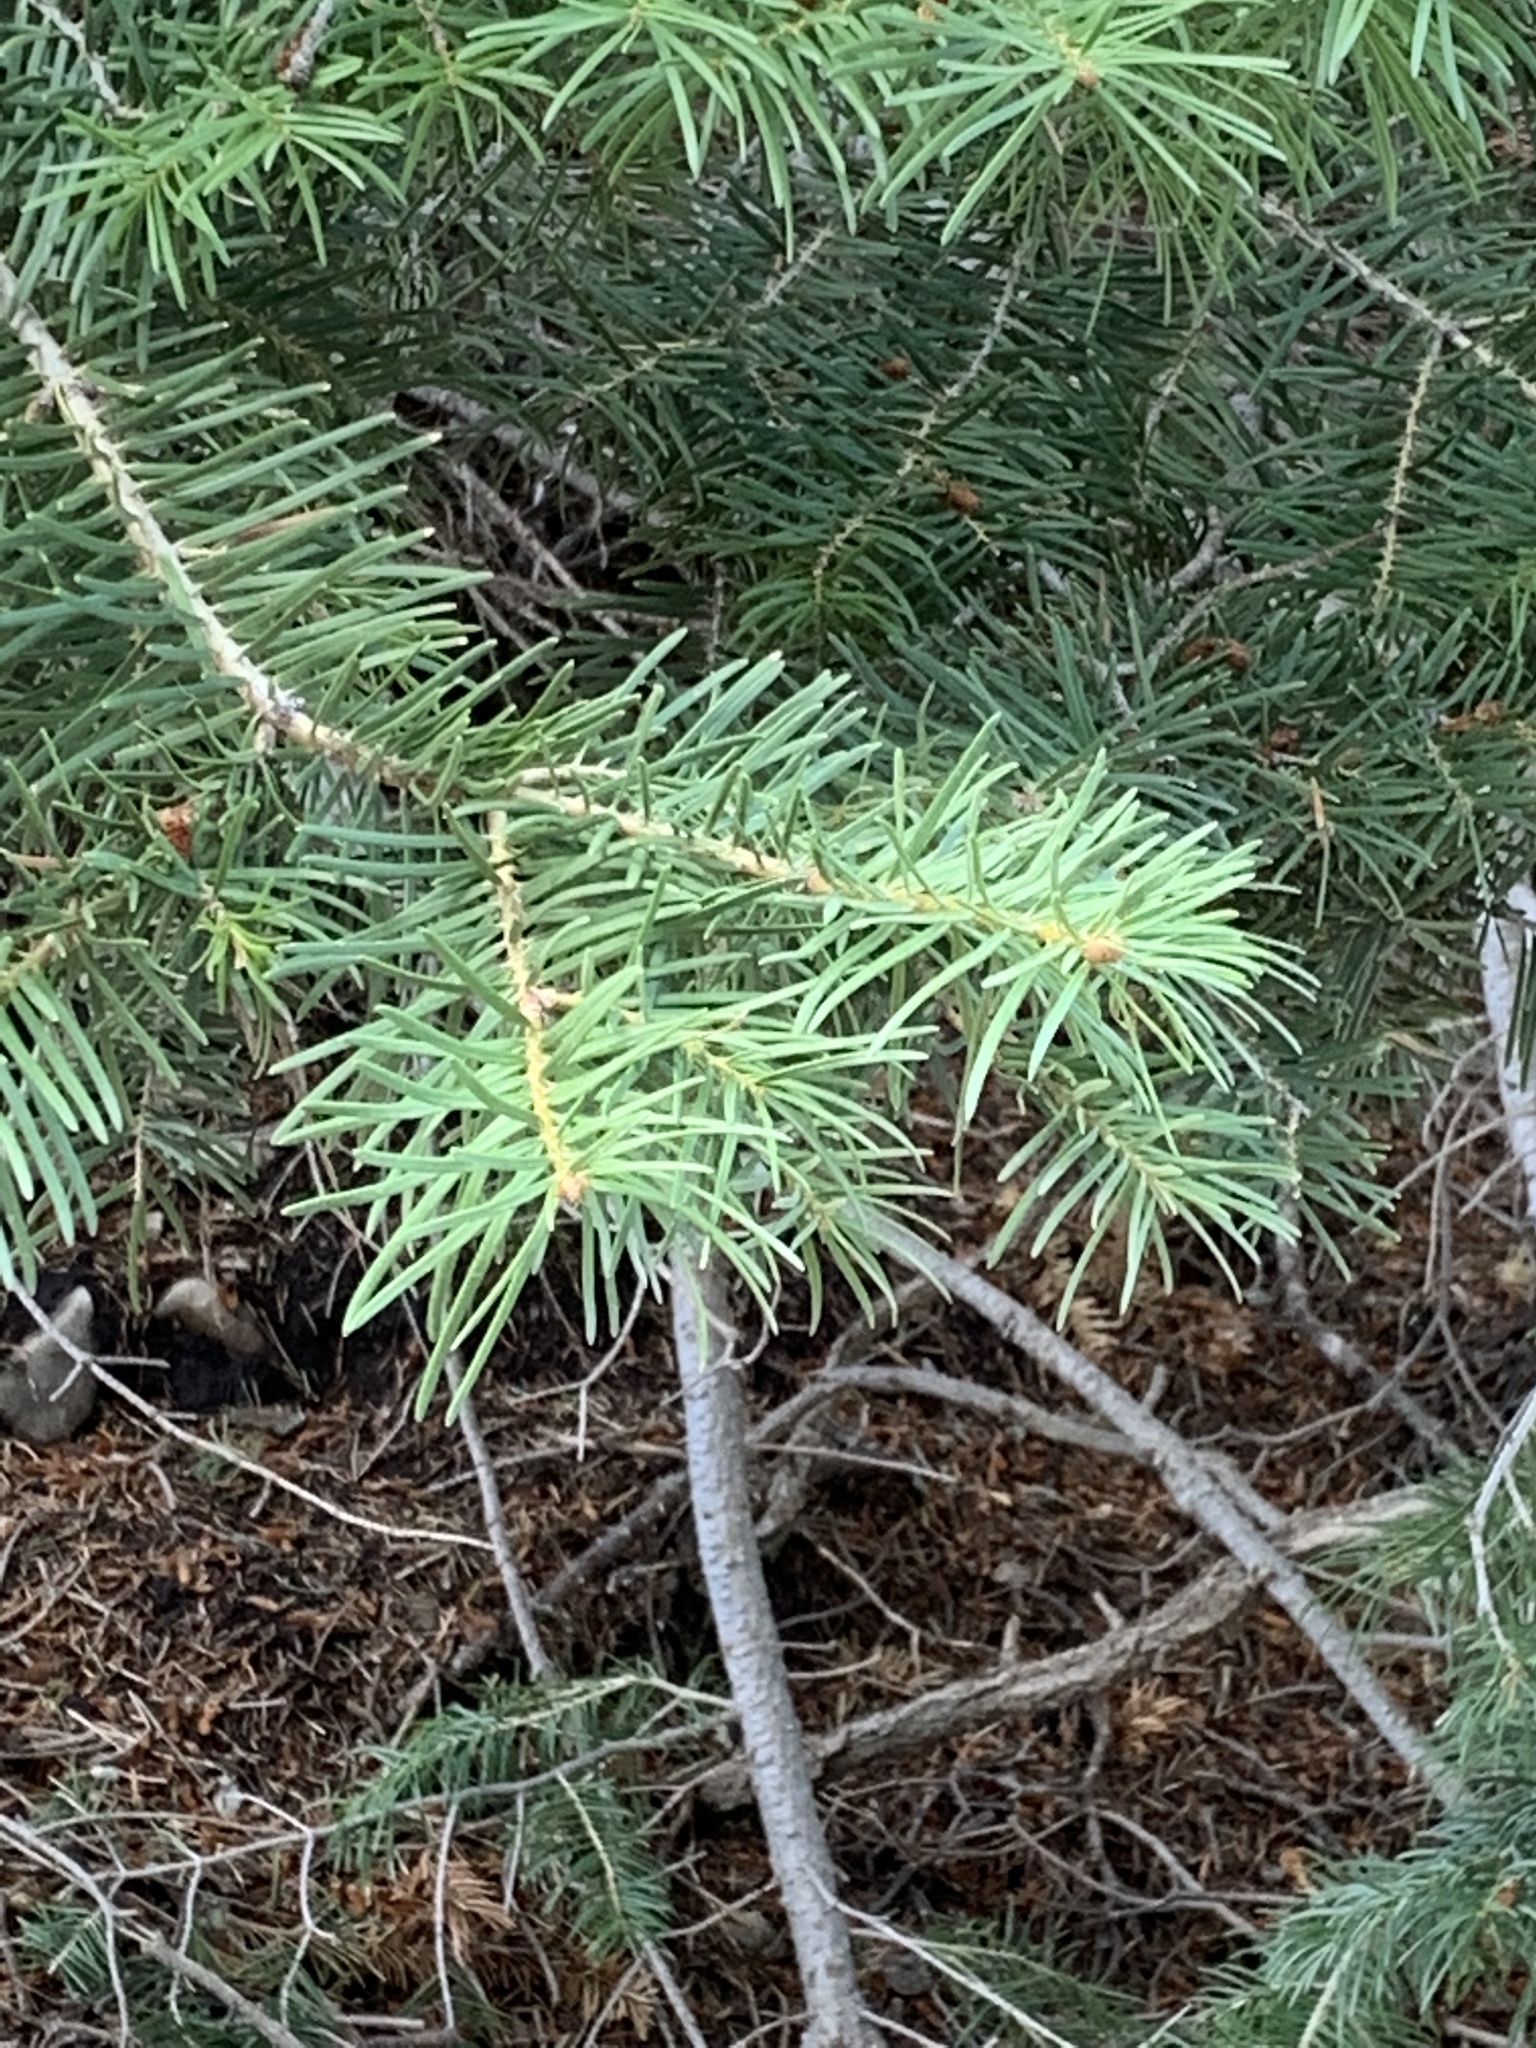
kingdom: Plantae
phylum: Tracheophyta
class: Pinopsida
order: Pinales
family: Pinaceae
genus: Abies
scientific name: Abies concolor
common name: Colorado fir
